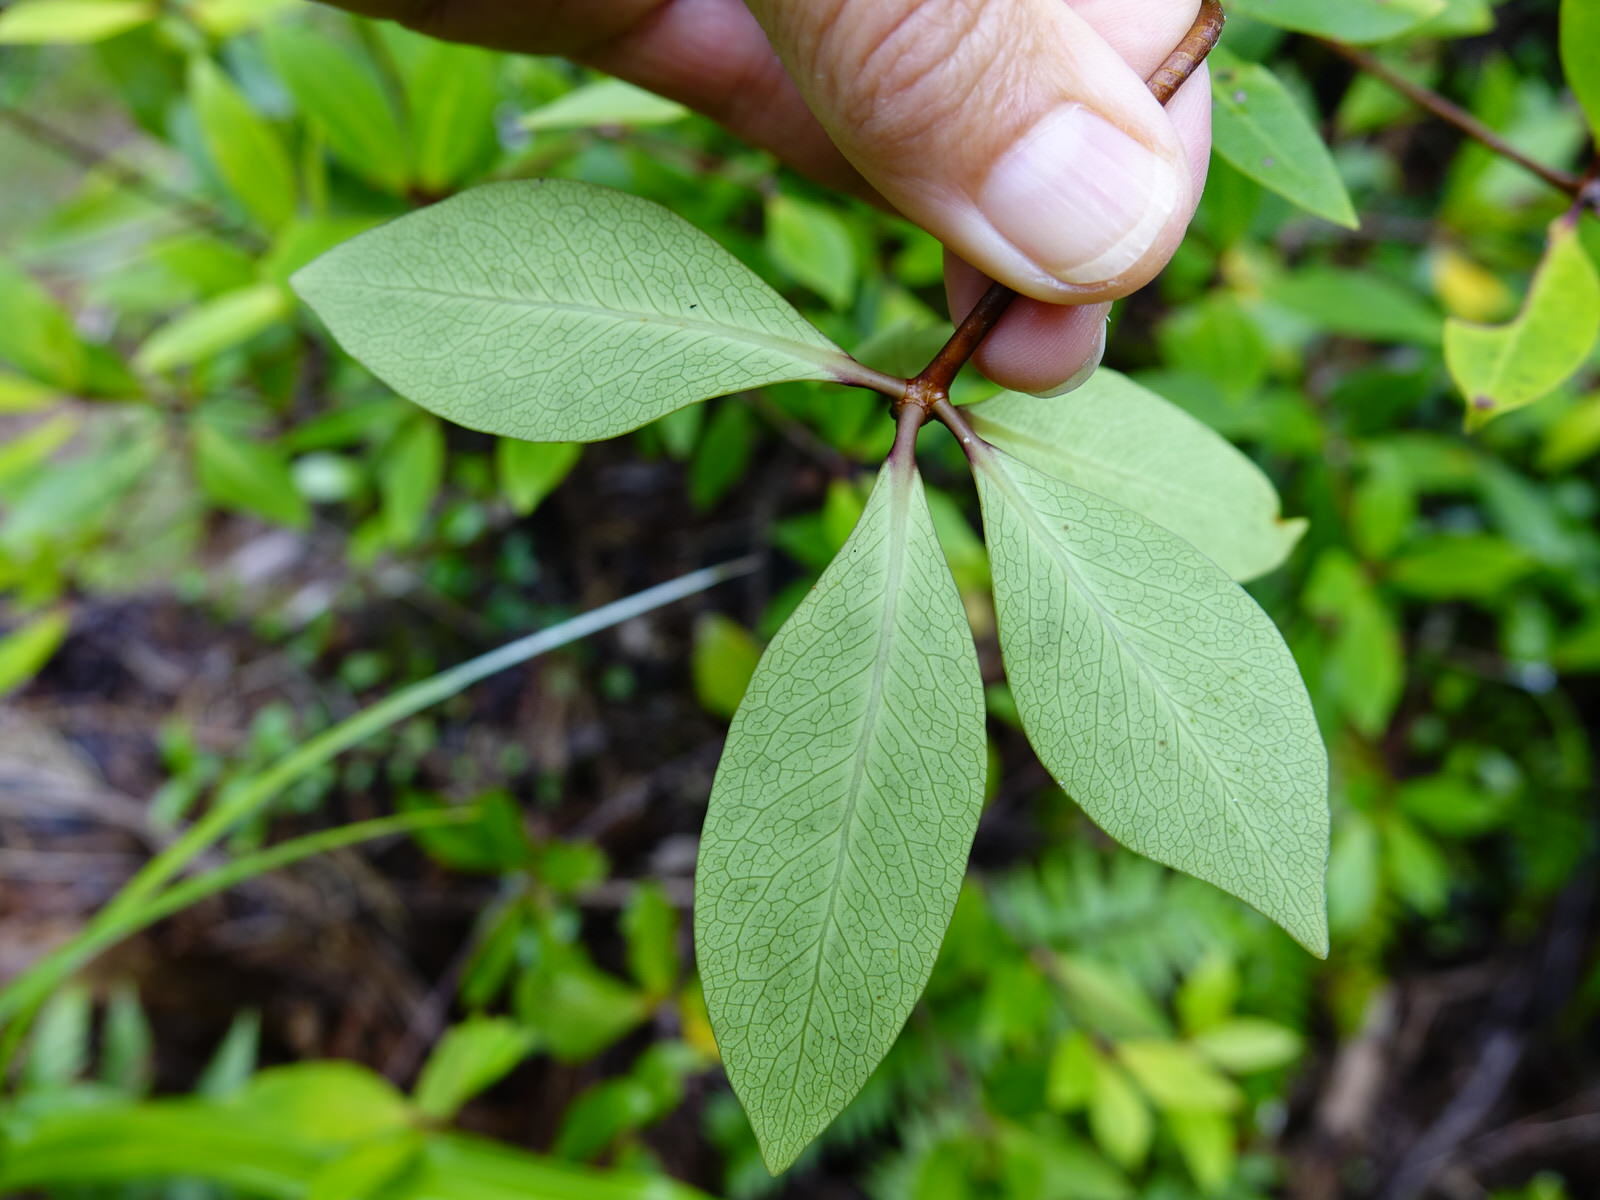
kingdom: Plantae
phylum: Tracheophyta
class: Magnoliopsida
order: Apiales
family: Pittosporaceae
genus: Pittosporum
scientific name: Pittosporum cornifolium
